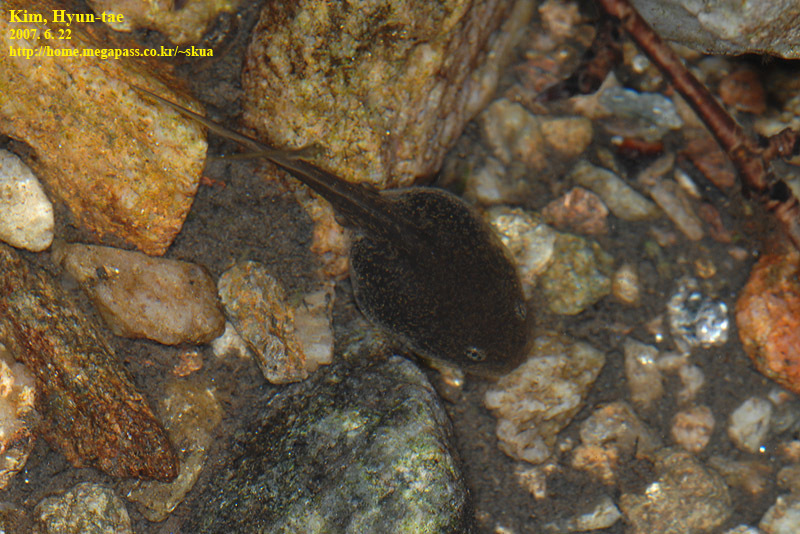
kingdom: Animalia
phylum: Chordata
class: Amphibia
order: Anura
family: Ranidae
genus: Rana
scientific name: Rana huanrenensis
